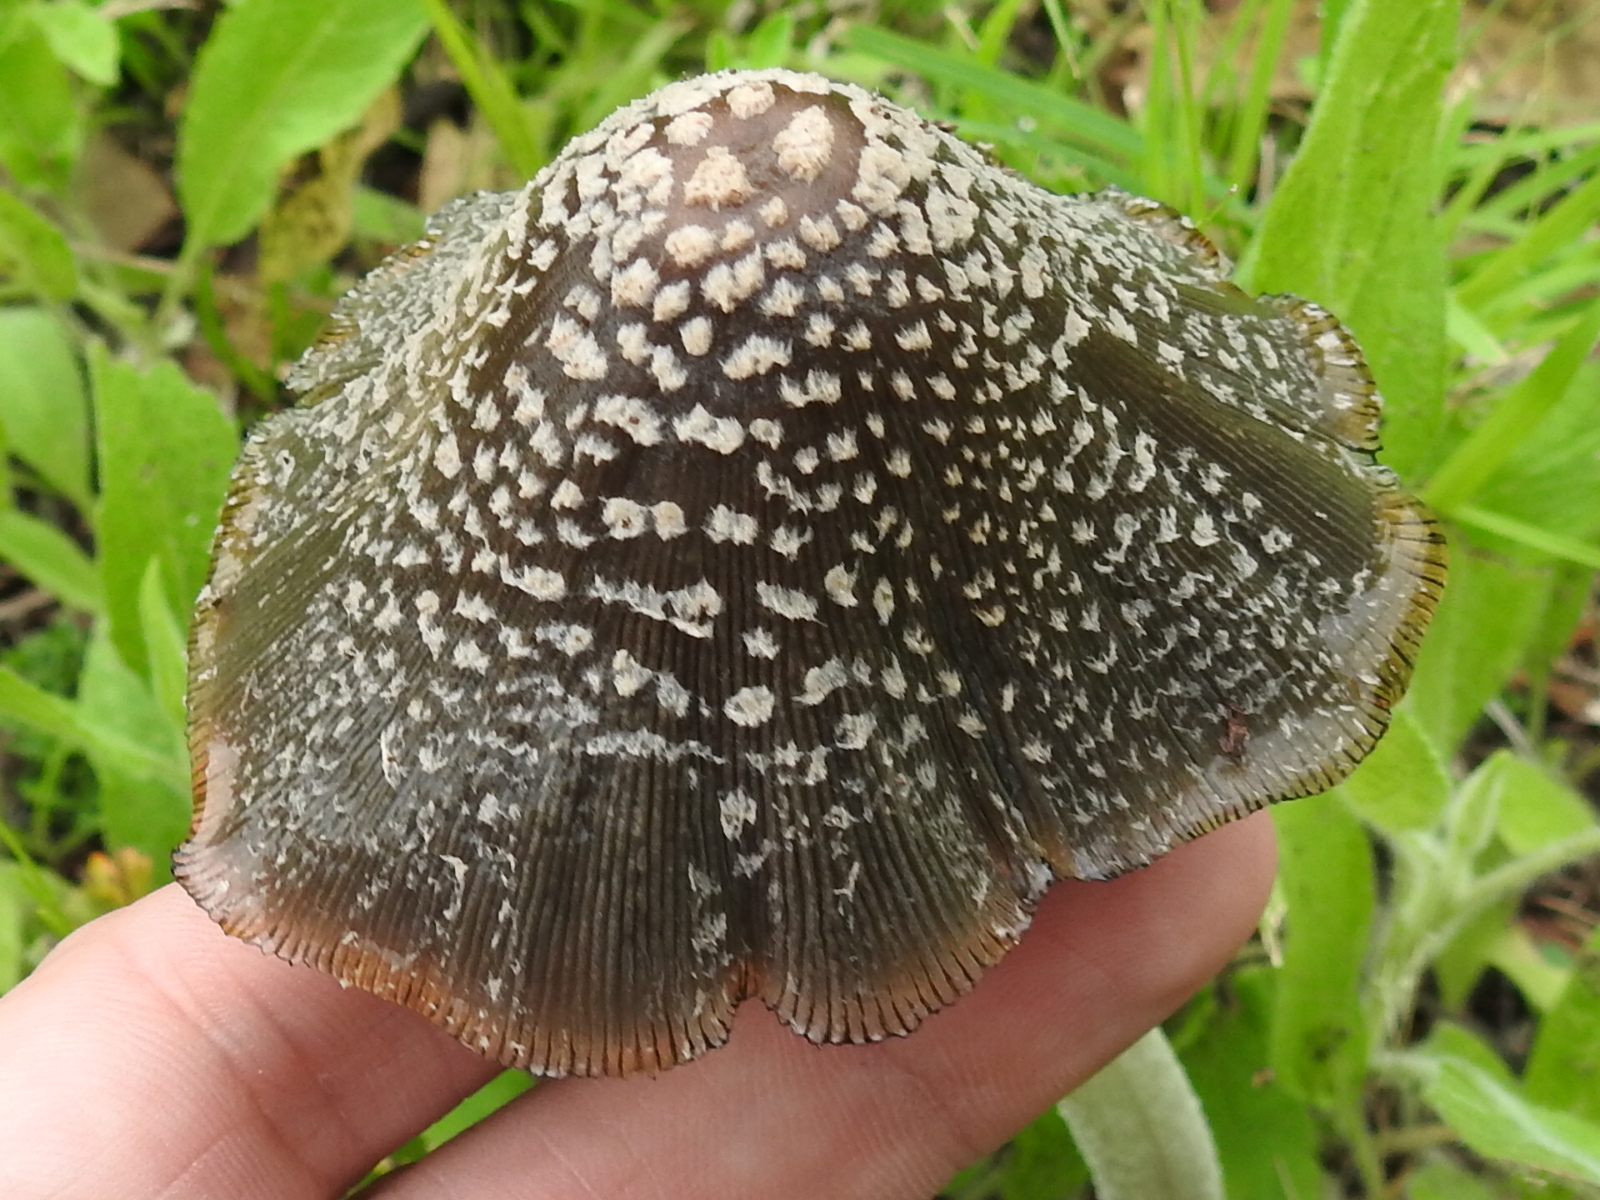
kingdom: Fungi
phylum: Basidiomycota
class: Agaricomycetes
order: Agaricales
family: Psathyrellaceae
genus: Coprinellus
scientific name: Coprinellus flocculosus
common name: Flocculose inkcap
